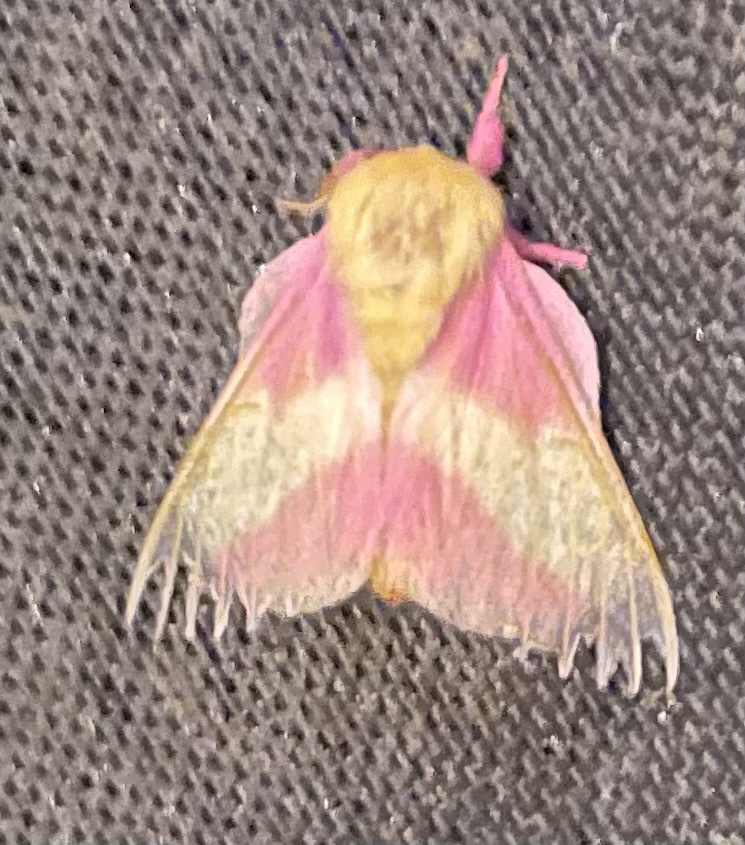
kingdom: Animalia
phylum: Arthropoda
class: Insecta
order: Lepidoptera
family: Saturniidae
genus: Dryocampa
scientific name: Dryocampa rubicunda
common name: Rosy maple moth
